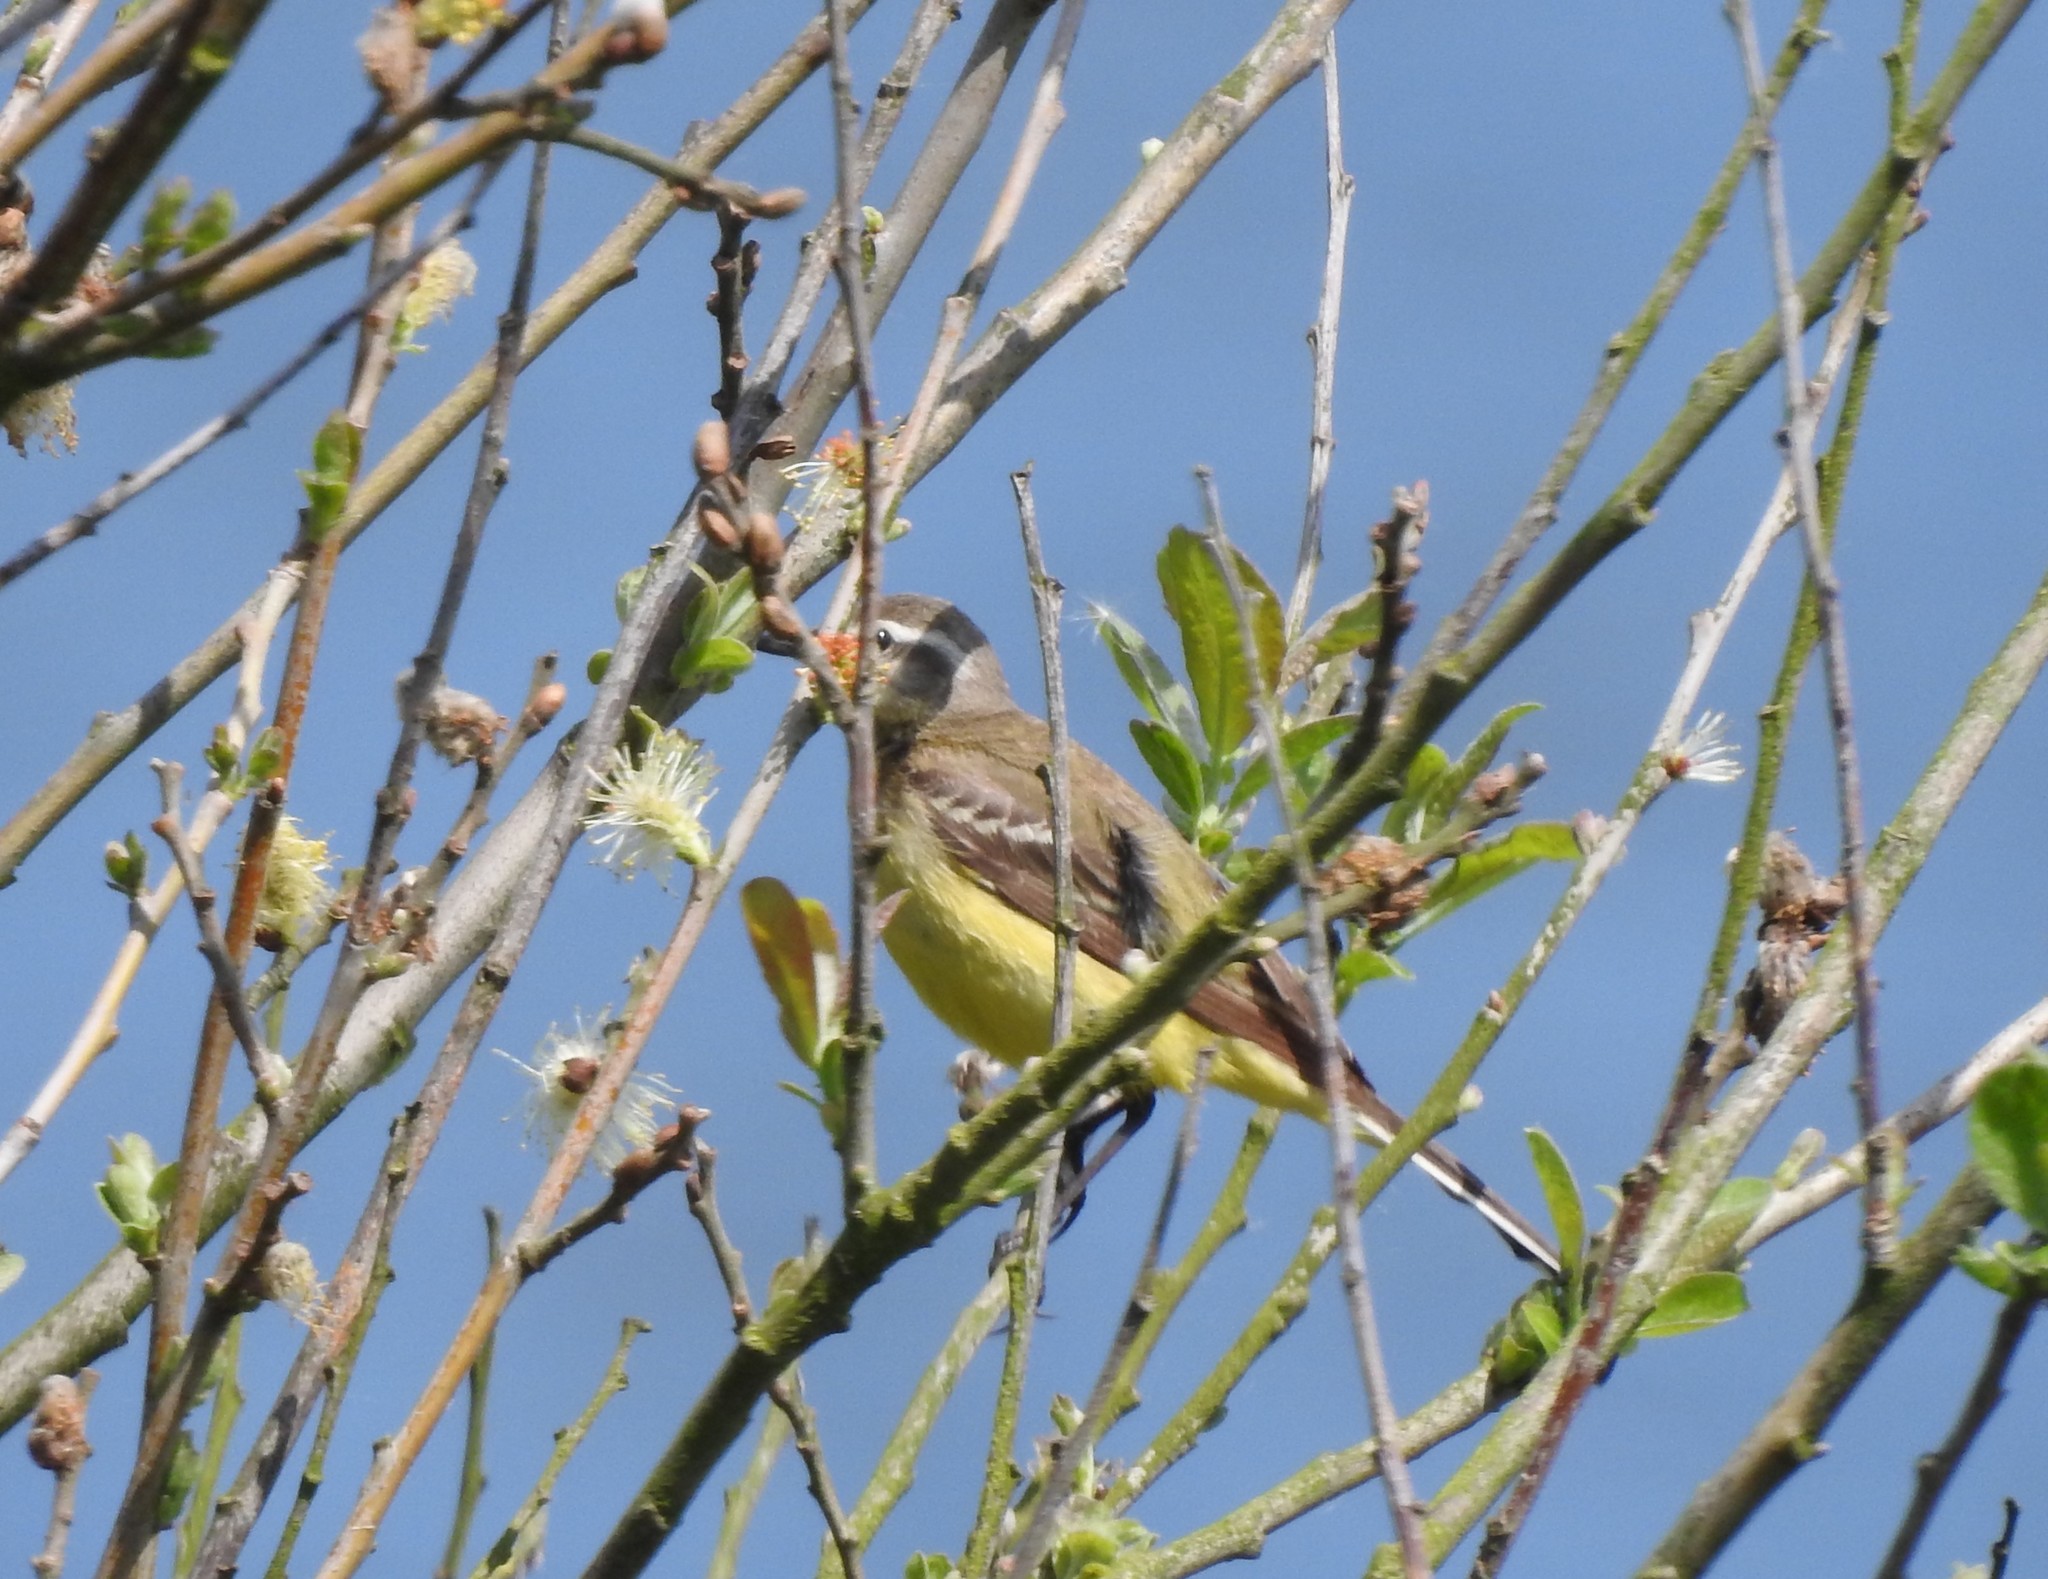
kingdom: Animalia
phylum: Chordata
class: Aves
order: Passeriformes
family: Motacillidae
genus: Motacilla
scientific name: Motacilla flava
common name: Western yellow wagtail
